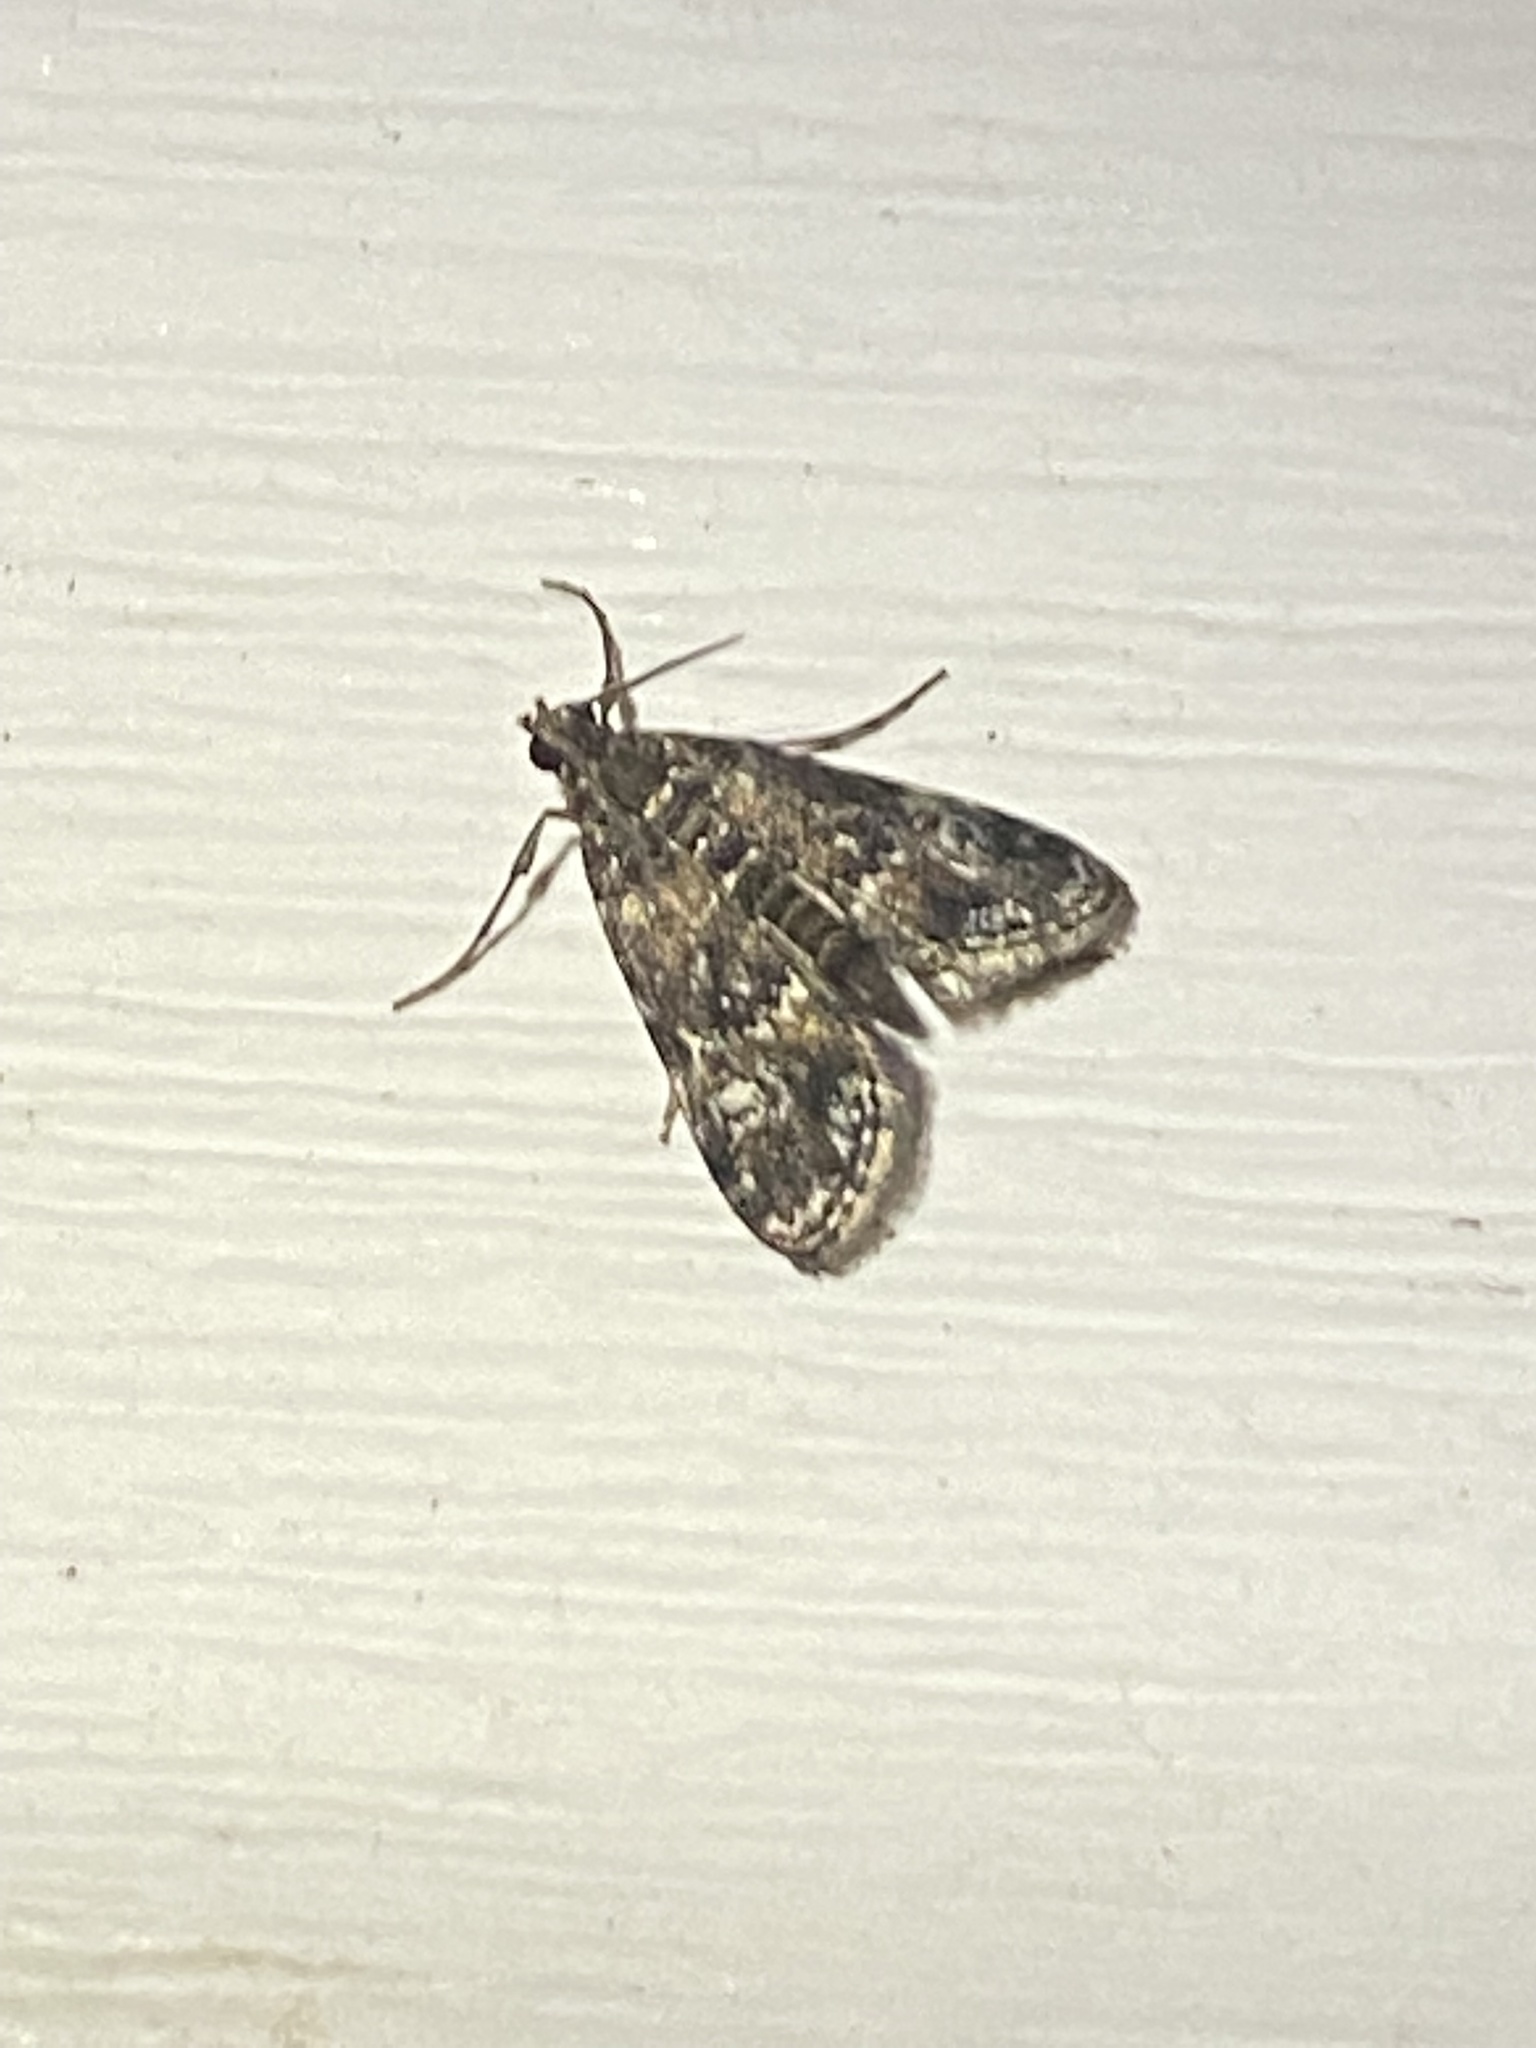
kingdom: Animalia
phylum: Arthropoda
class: Insecta
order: Lepidoptera
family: Crambidae
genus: Elophila
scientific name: Elophila obliteralis
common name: Waterlily leafcutter moth
